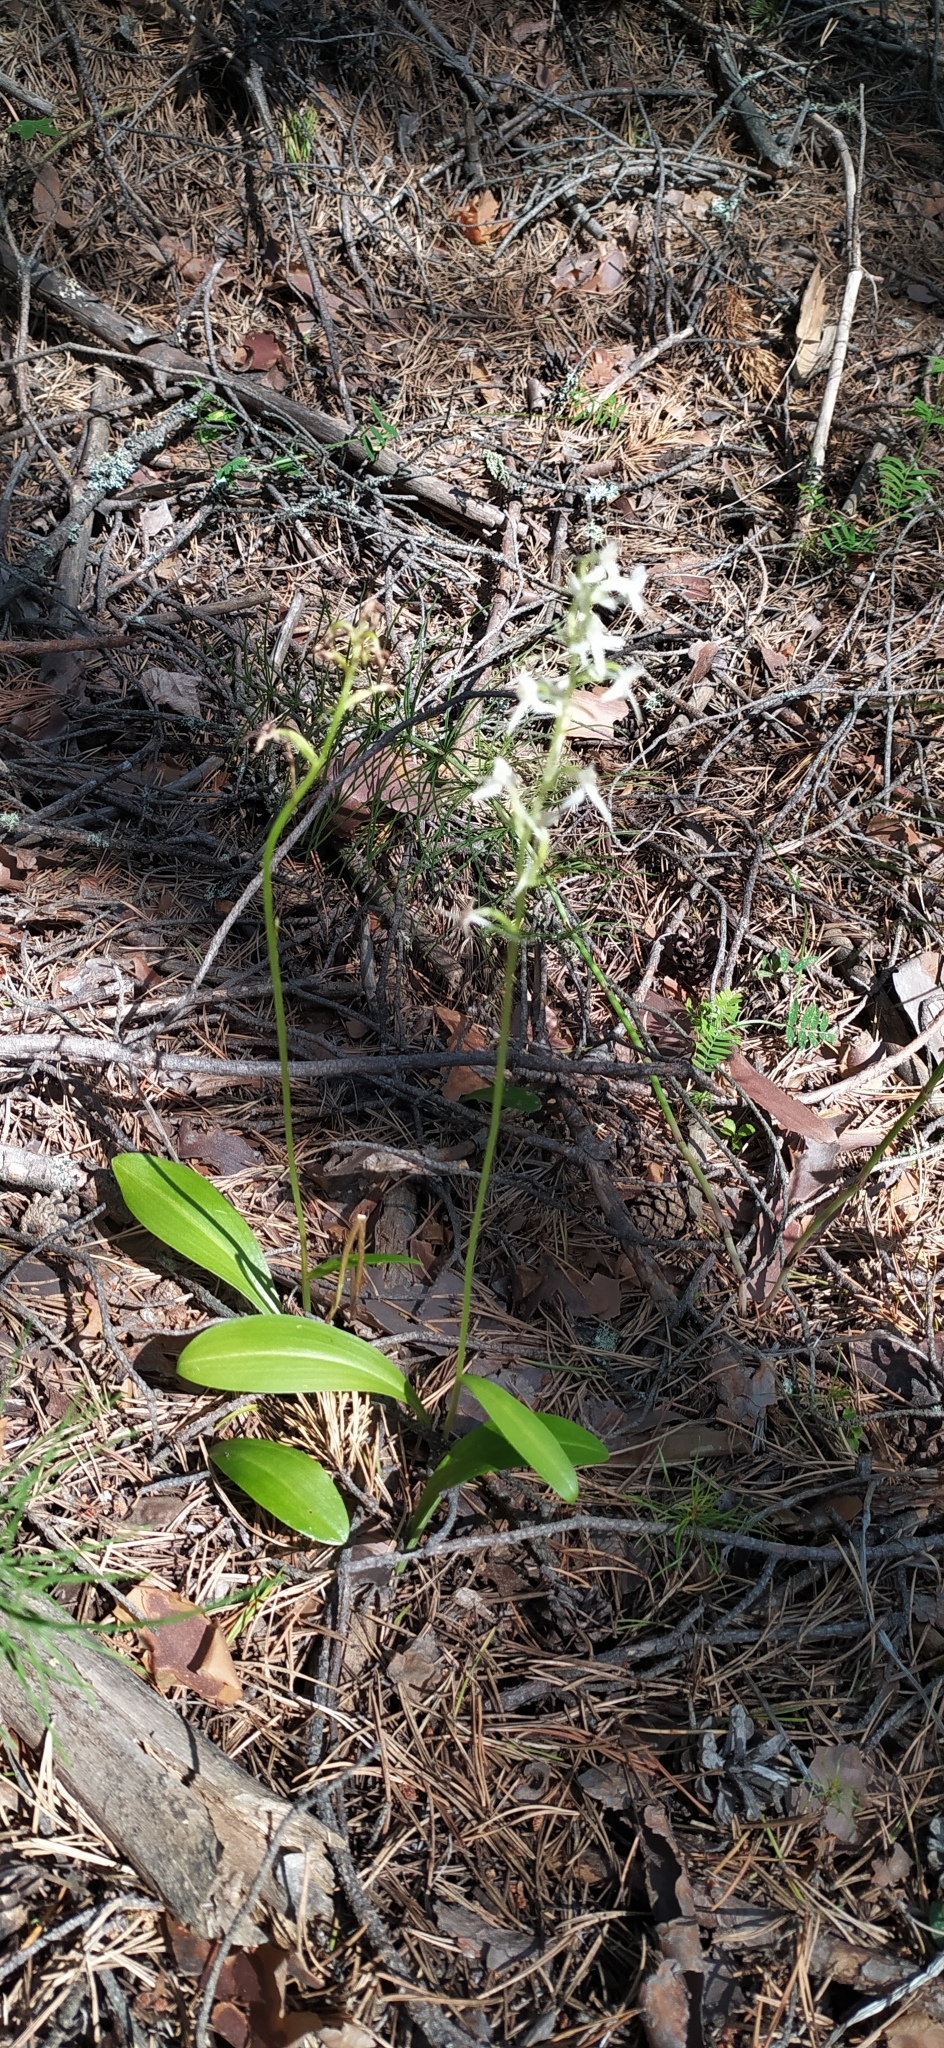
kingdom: Plantae
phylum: Tracheophyta
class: Liliopsida
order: Asparagales
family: Orchidaceae
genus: Platanthera
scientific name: Platanthera bifolia
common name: Lesser butterfly-orchid
